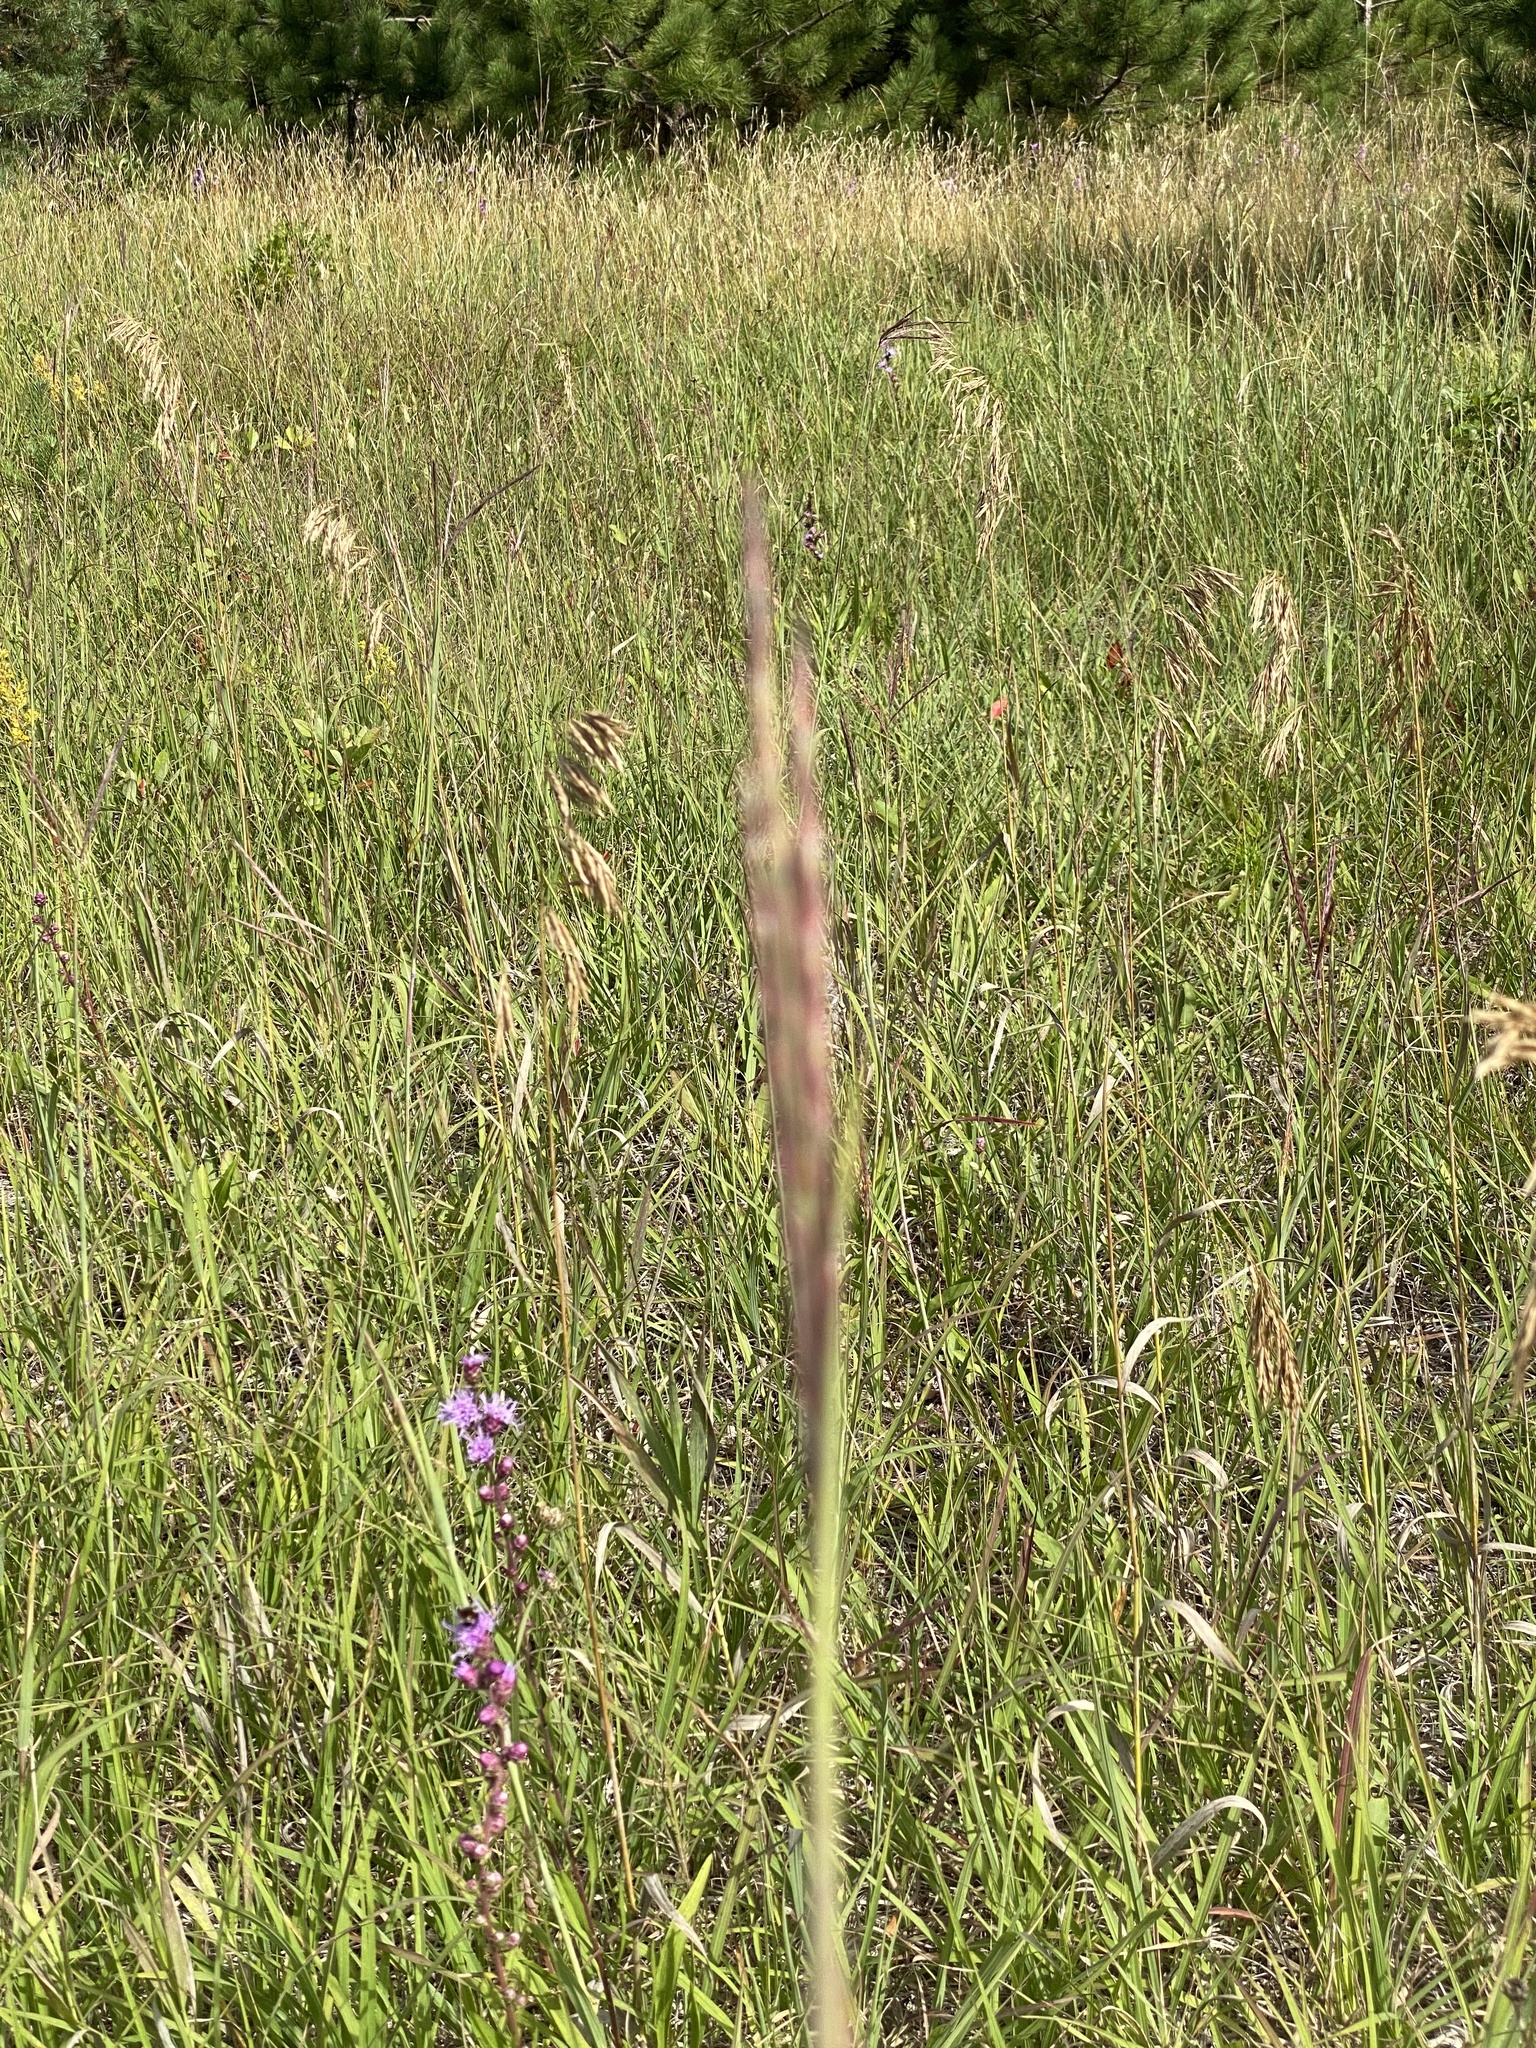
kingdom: Plantae
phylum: Tracheophyta
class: Liliopsida
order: Poales
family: Poaceae
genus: Andropogon
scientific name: Andropogon gerardi
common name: Big bluestem
